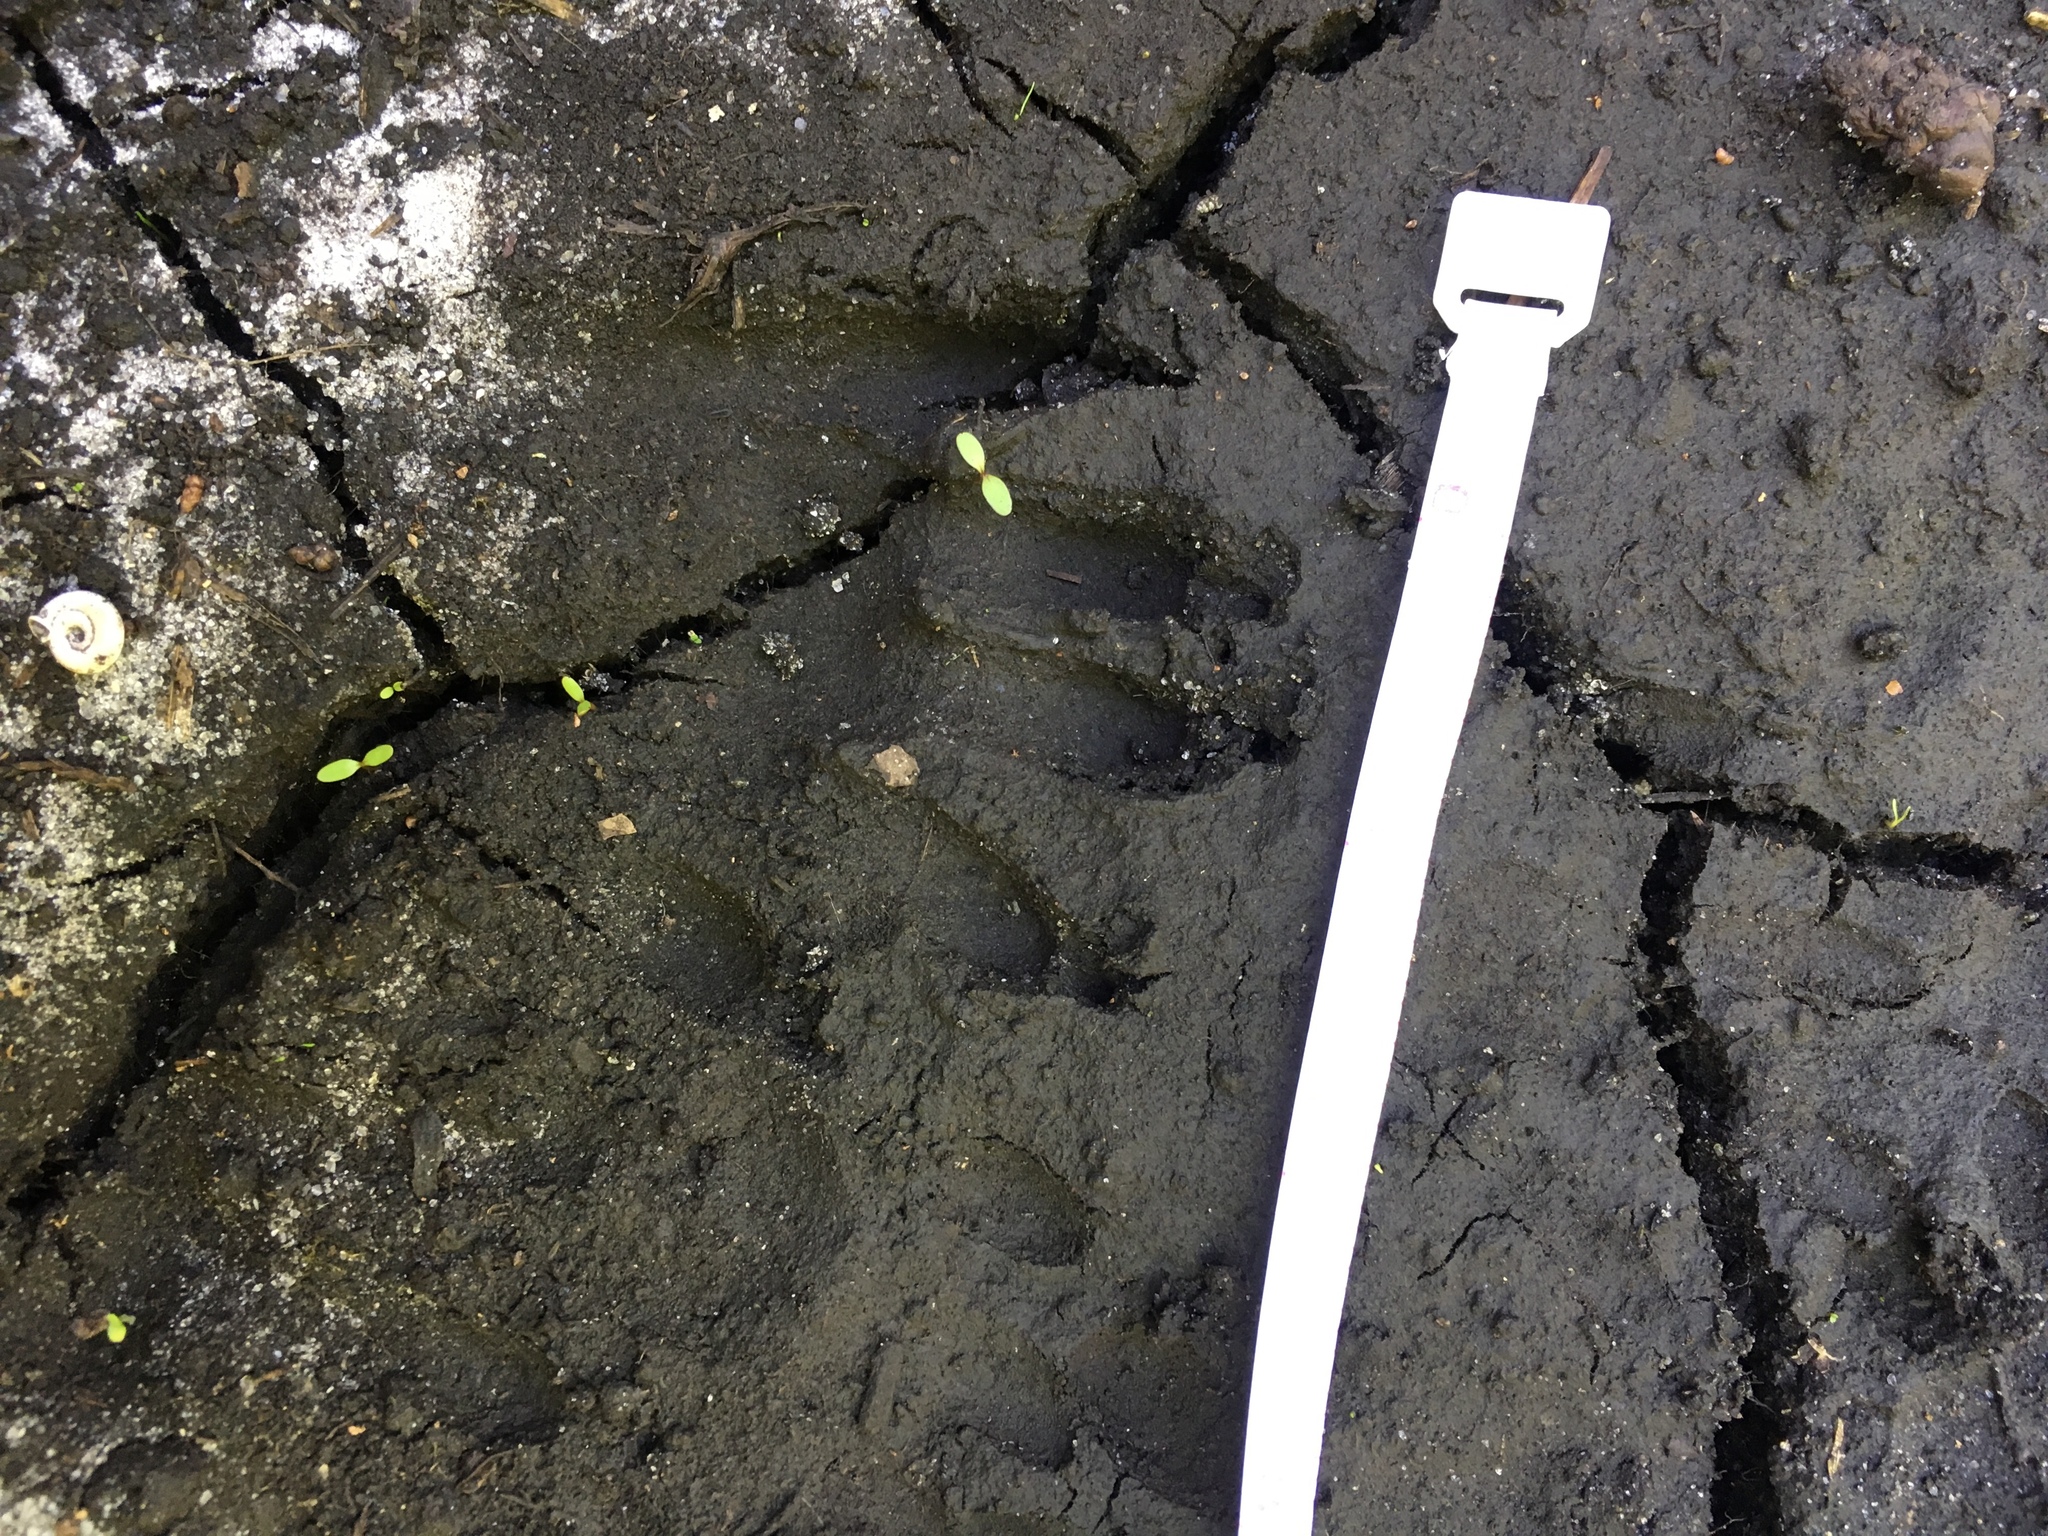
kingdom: Animalia
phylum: Chordata
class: Mammalia
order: Carnivora
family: Procyonidae
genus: Procyon
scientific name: Procyon lotor
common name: Raccoon
